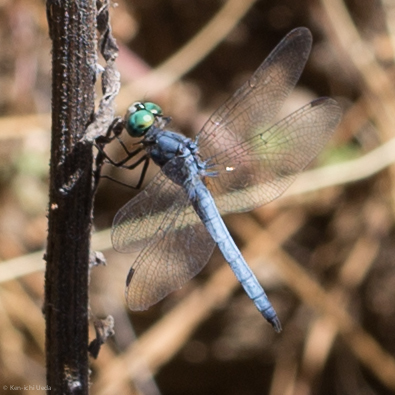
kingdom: Animalia
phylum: Arthropoda
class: Insecta
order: Odonata
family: Libellulidae
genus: Pachydiplax
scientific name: Pachydiplax longipennis
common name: Blue dasher
